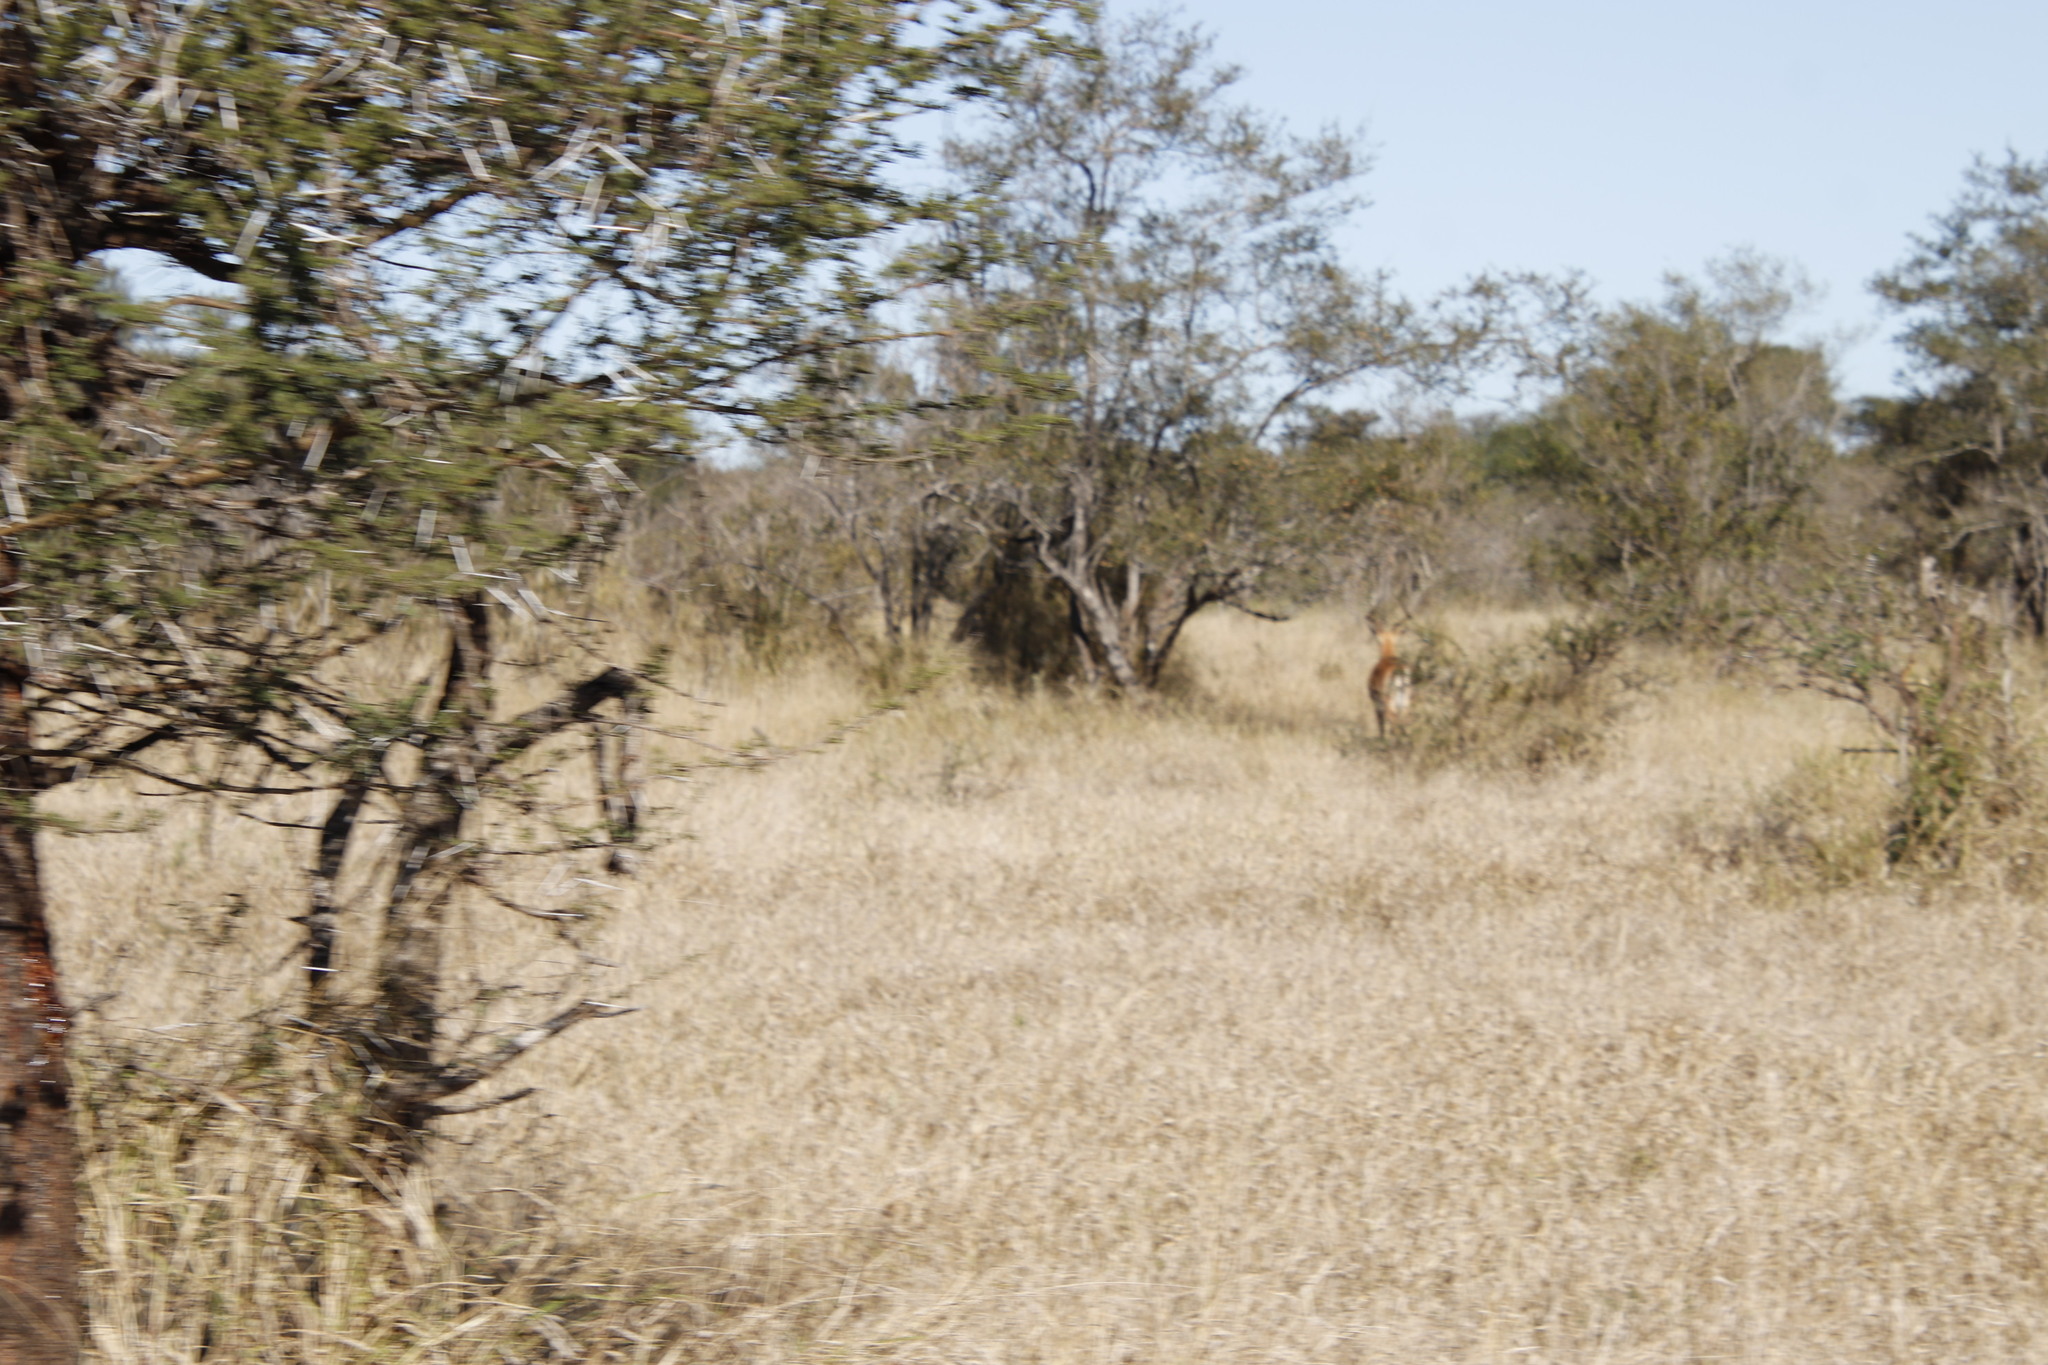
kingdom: Animalia
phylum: Chordata
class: Mammalia
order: Artiodactyla
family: Bovidae
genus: Aepyceros
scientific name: Aepyceros melampus
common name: Impala
